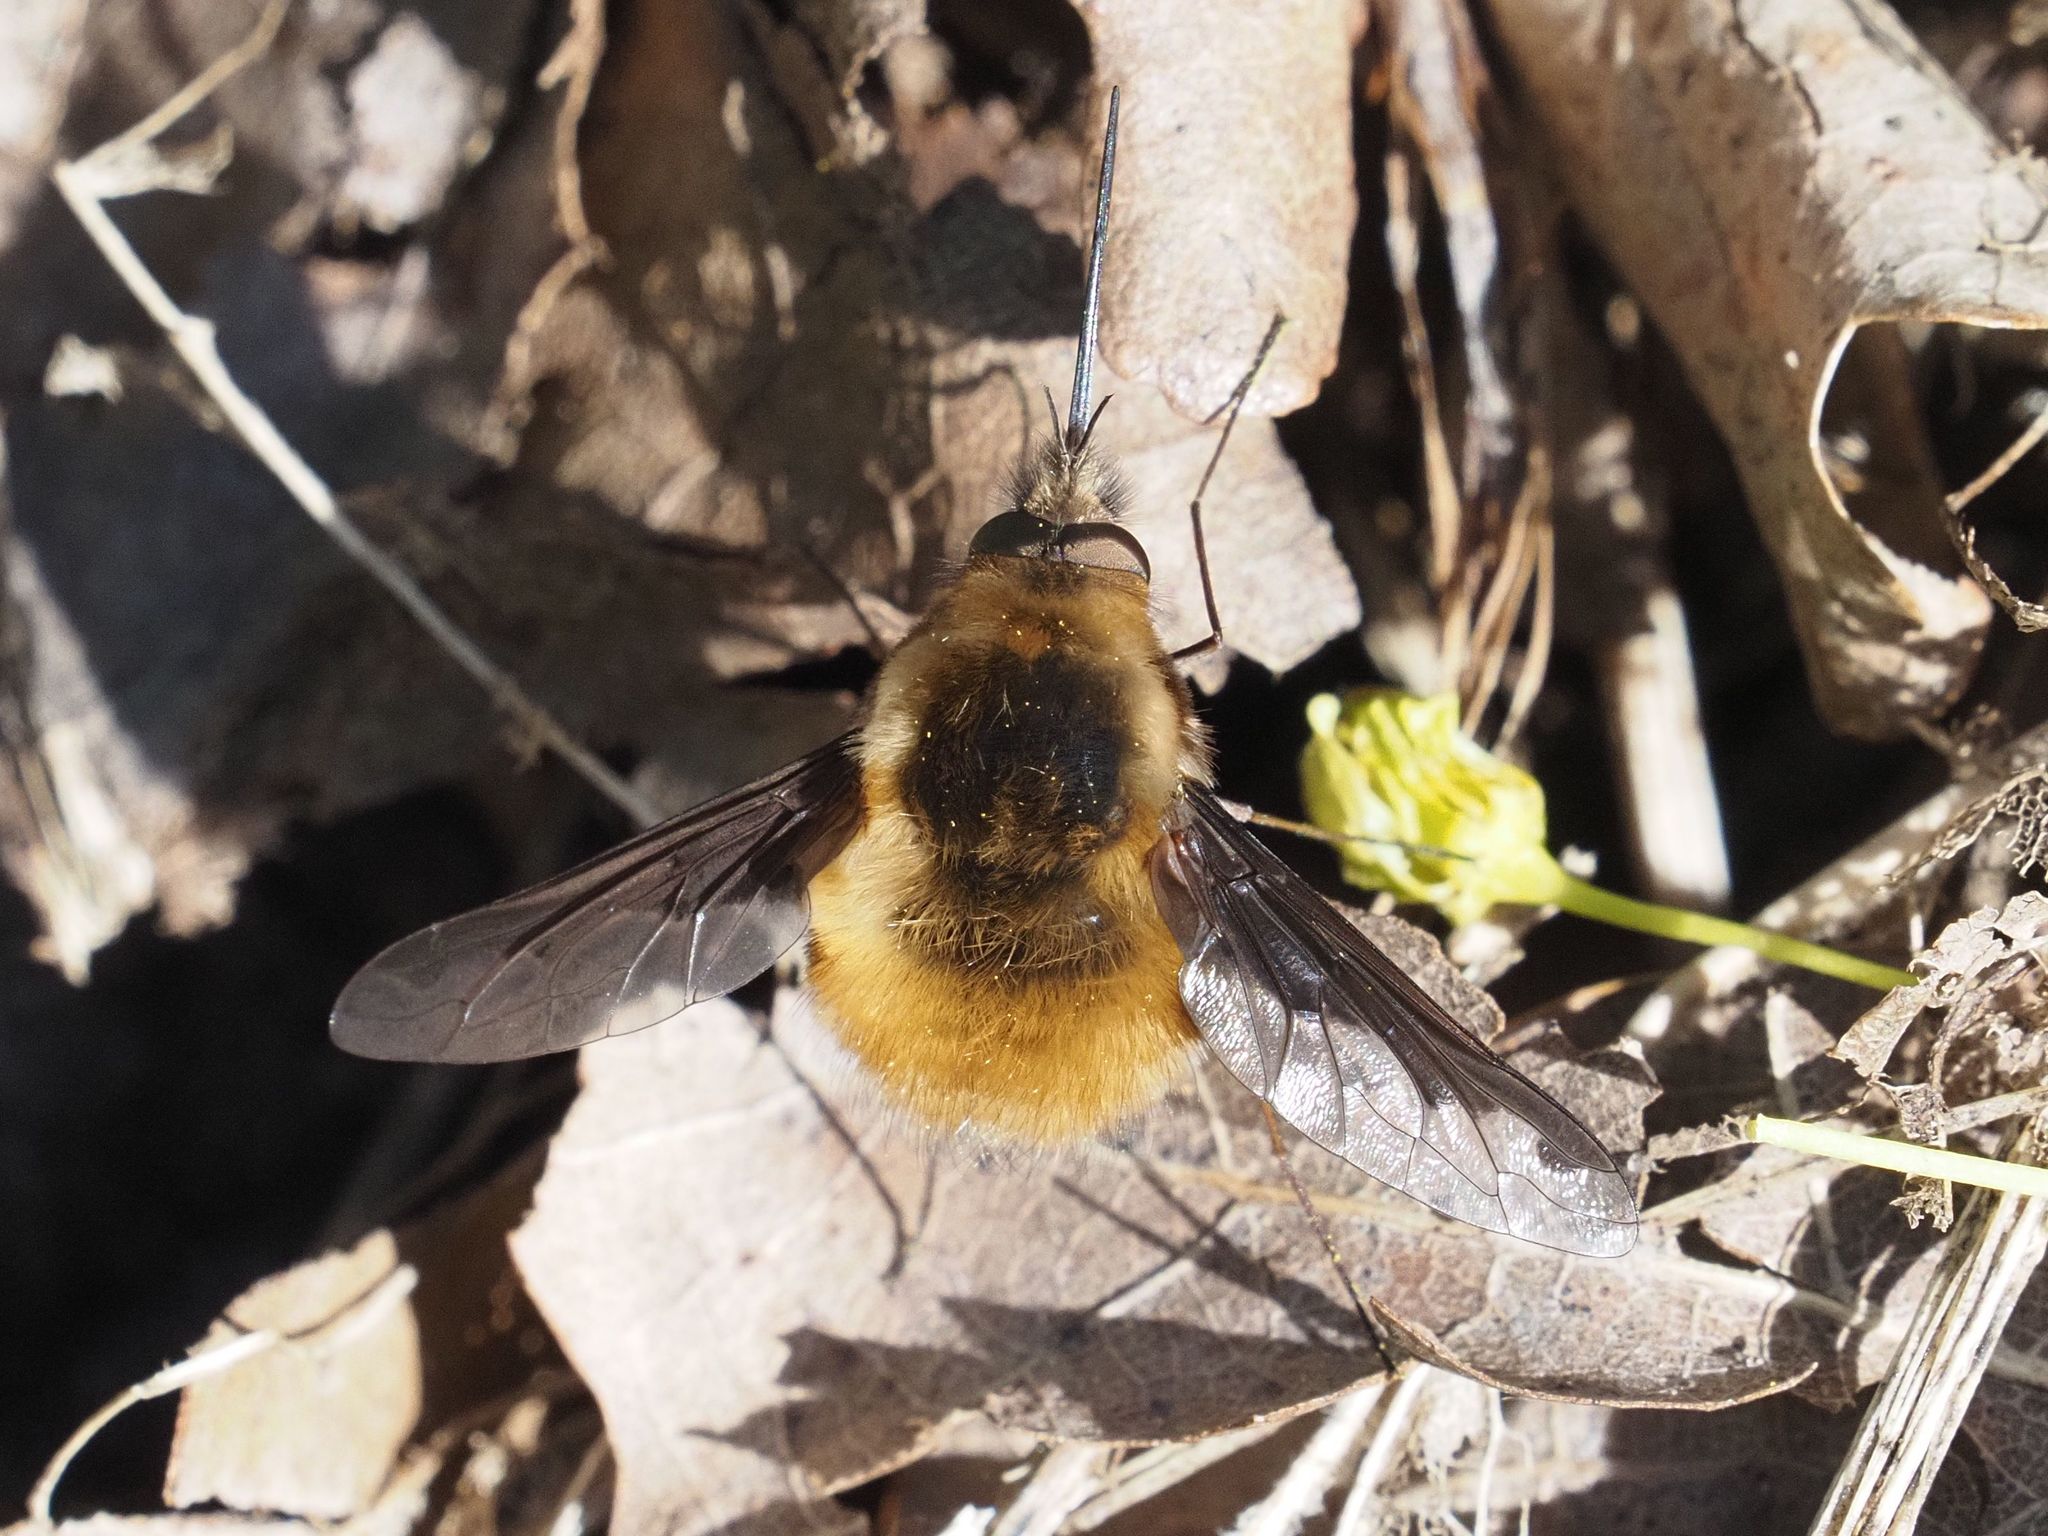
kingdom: Animalia
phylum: Arthropoda
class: Insecta
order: Diptera
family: Bombyliidae
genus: Bombylius
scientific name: Bombylius major
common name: Bee fly
